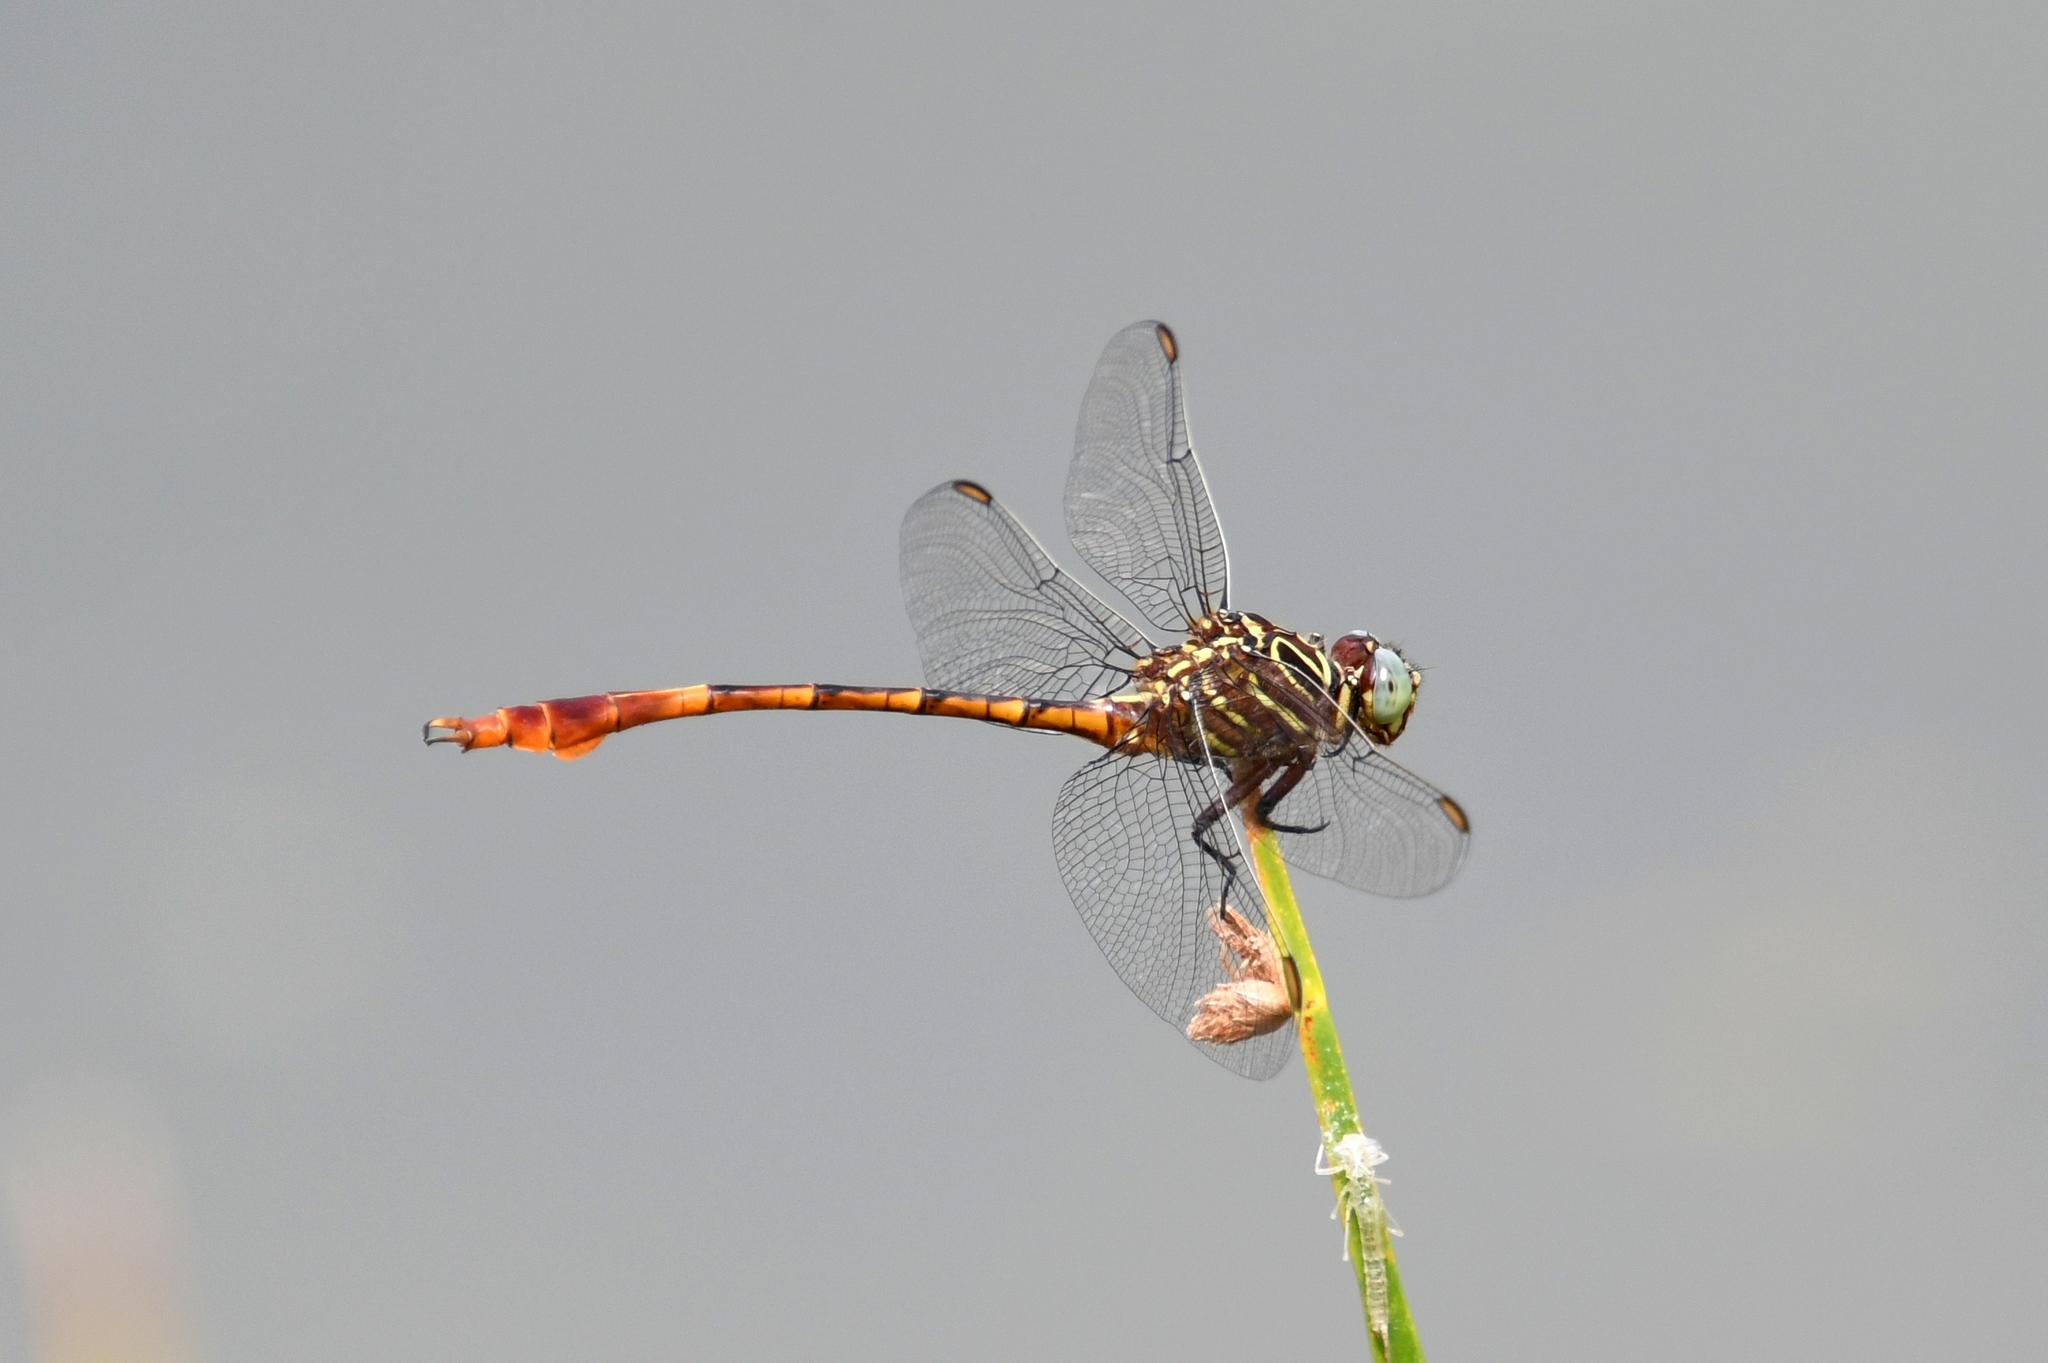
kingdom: Animalia
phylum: Arthropoda
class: Insecta
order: Odonata
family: Gomphidae
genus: Aphylla
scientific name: Aphylla protracta
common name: Narrow-striped forceptail
